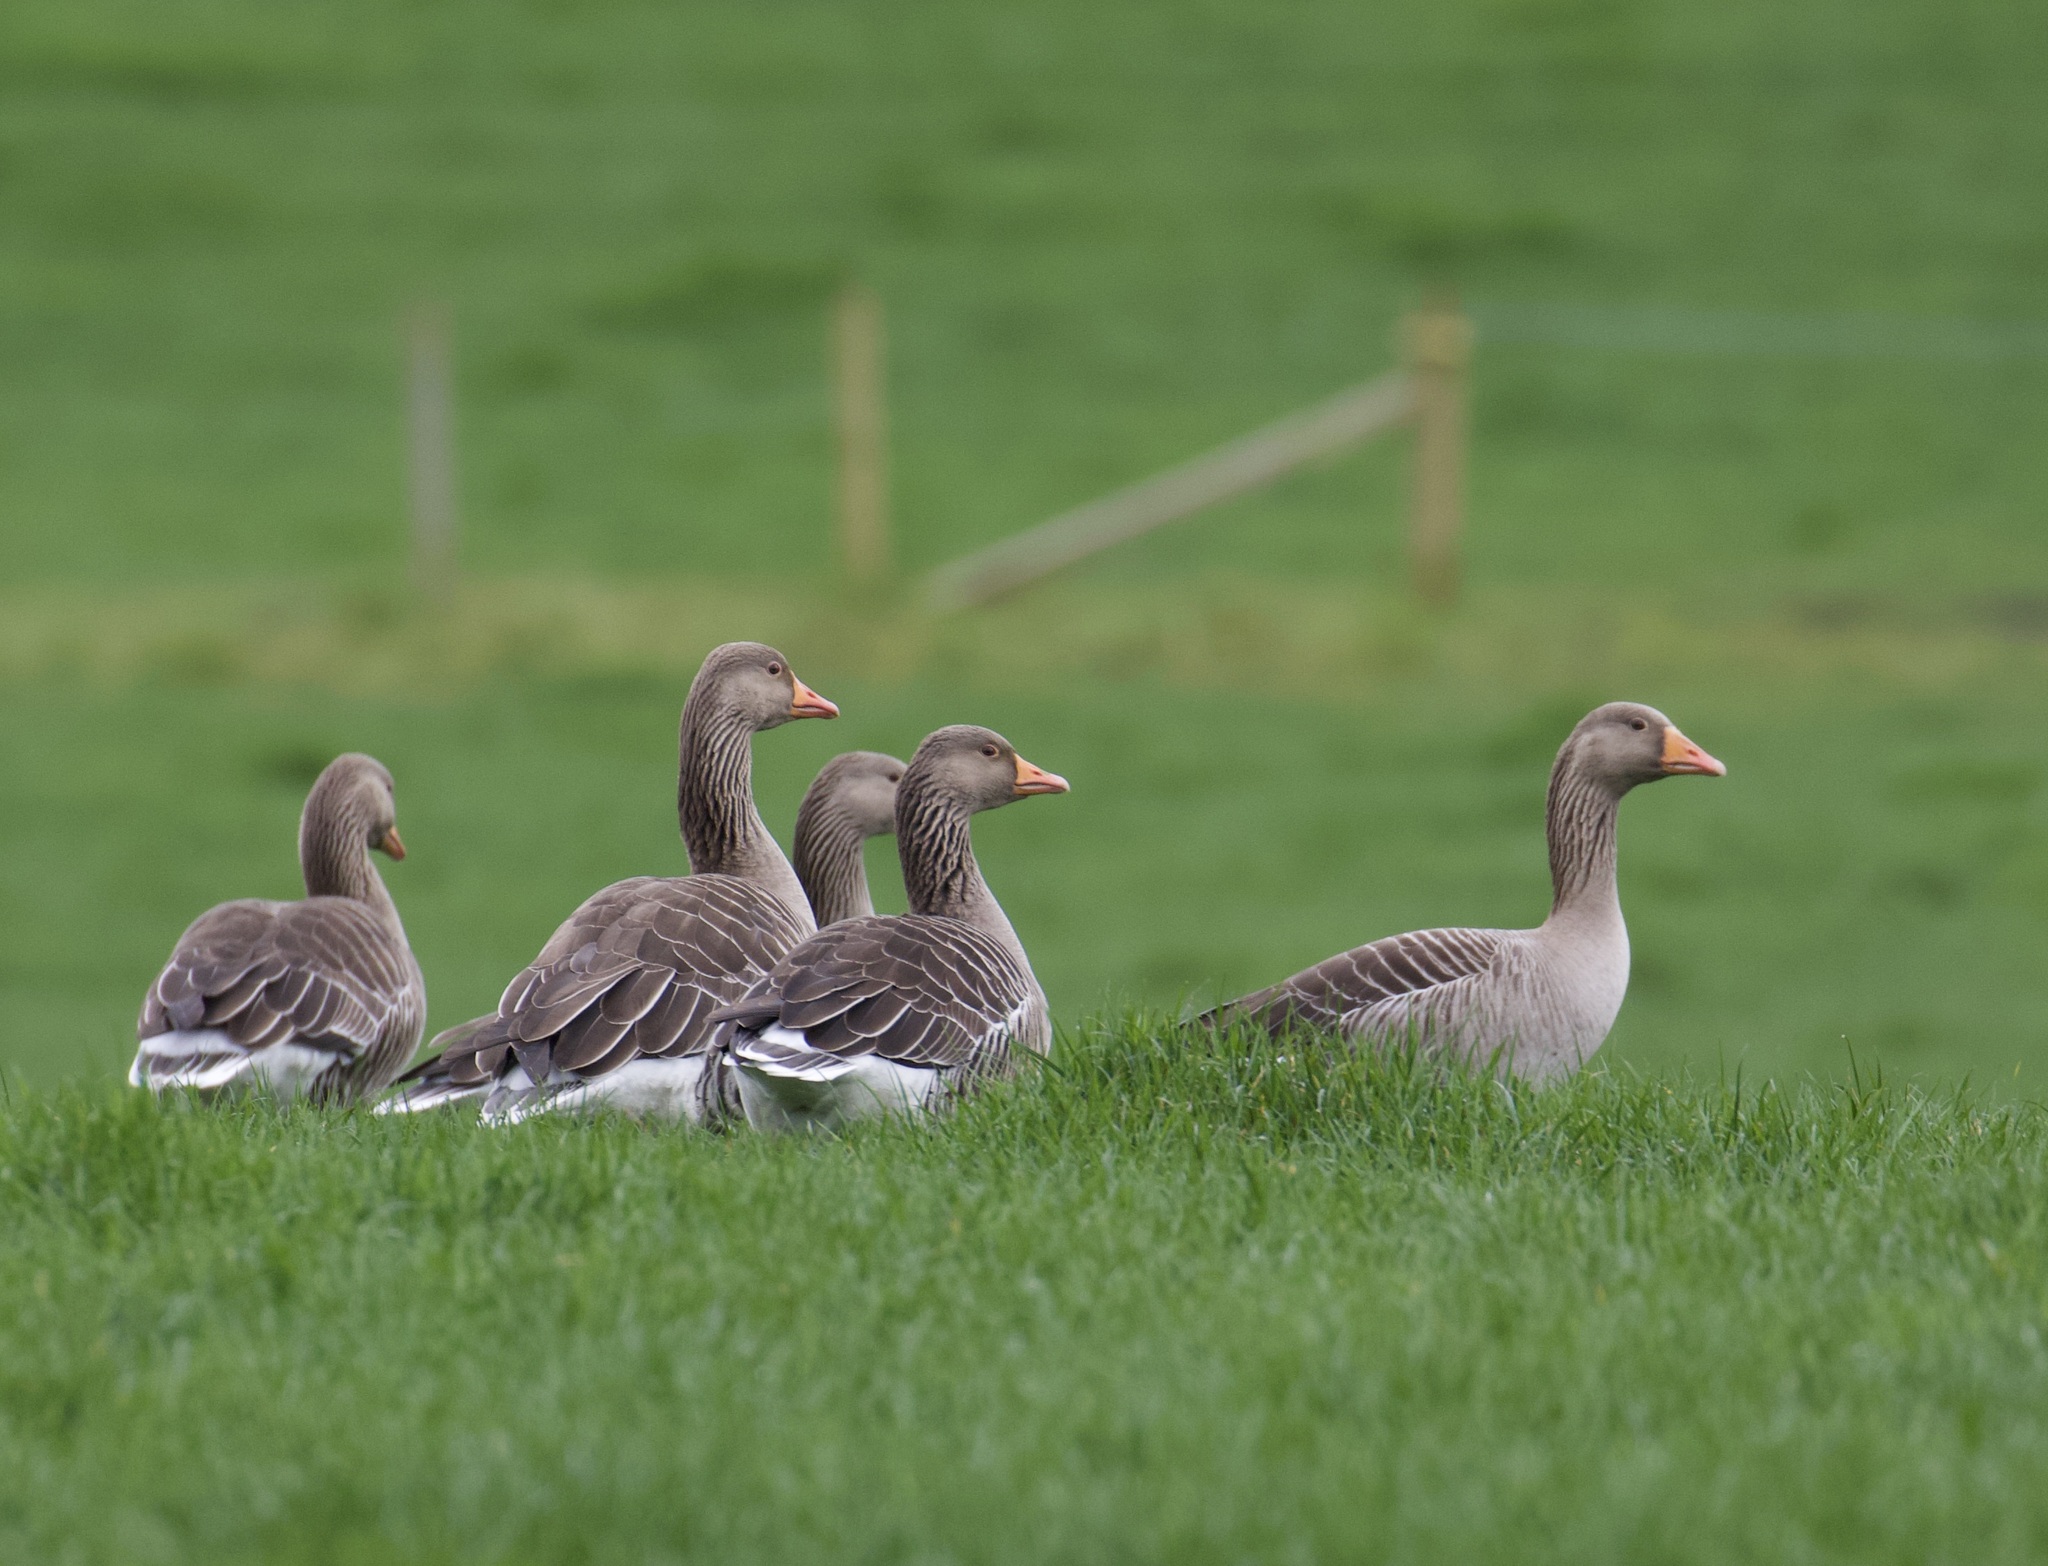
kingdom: Animalia
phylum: Chordata
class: Aves
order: Anseriformes
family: Anatidae
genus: Anser
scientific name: Anser anser
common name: Greylag goose
